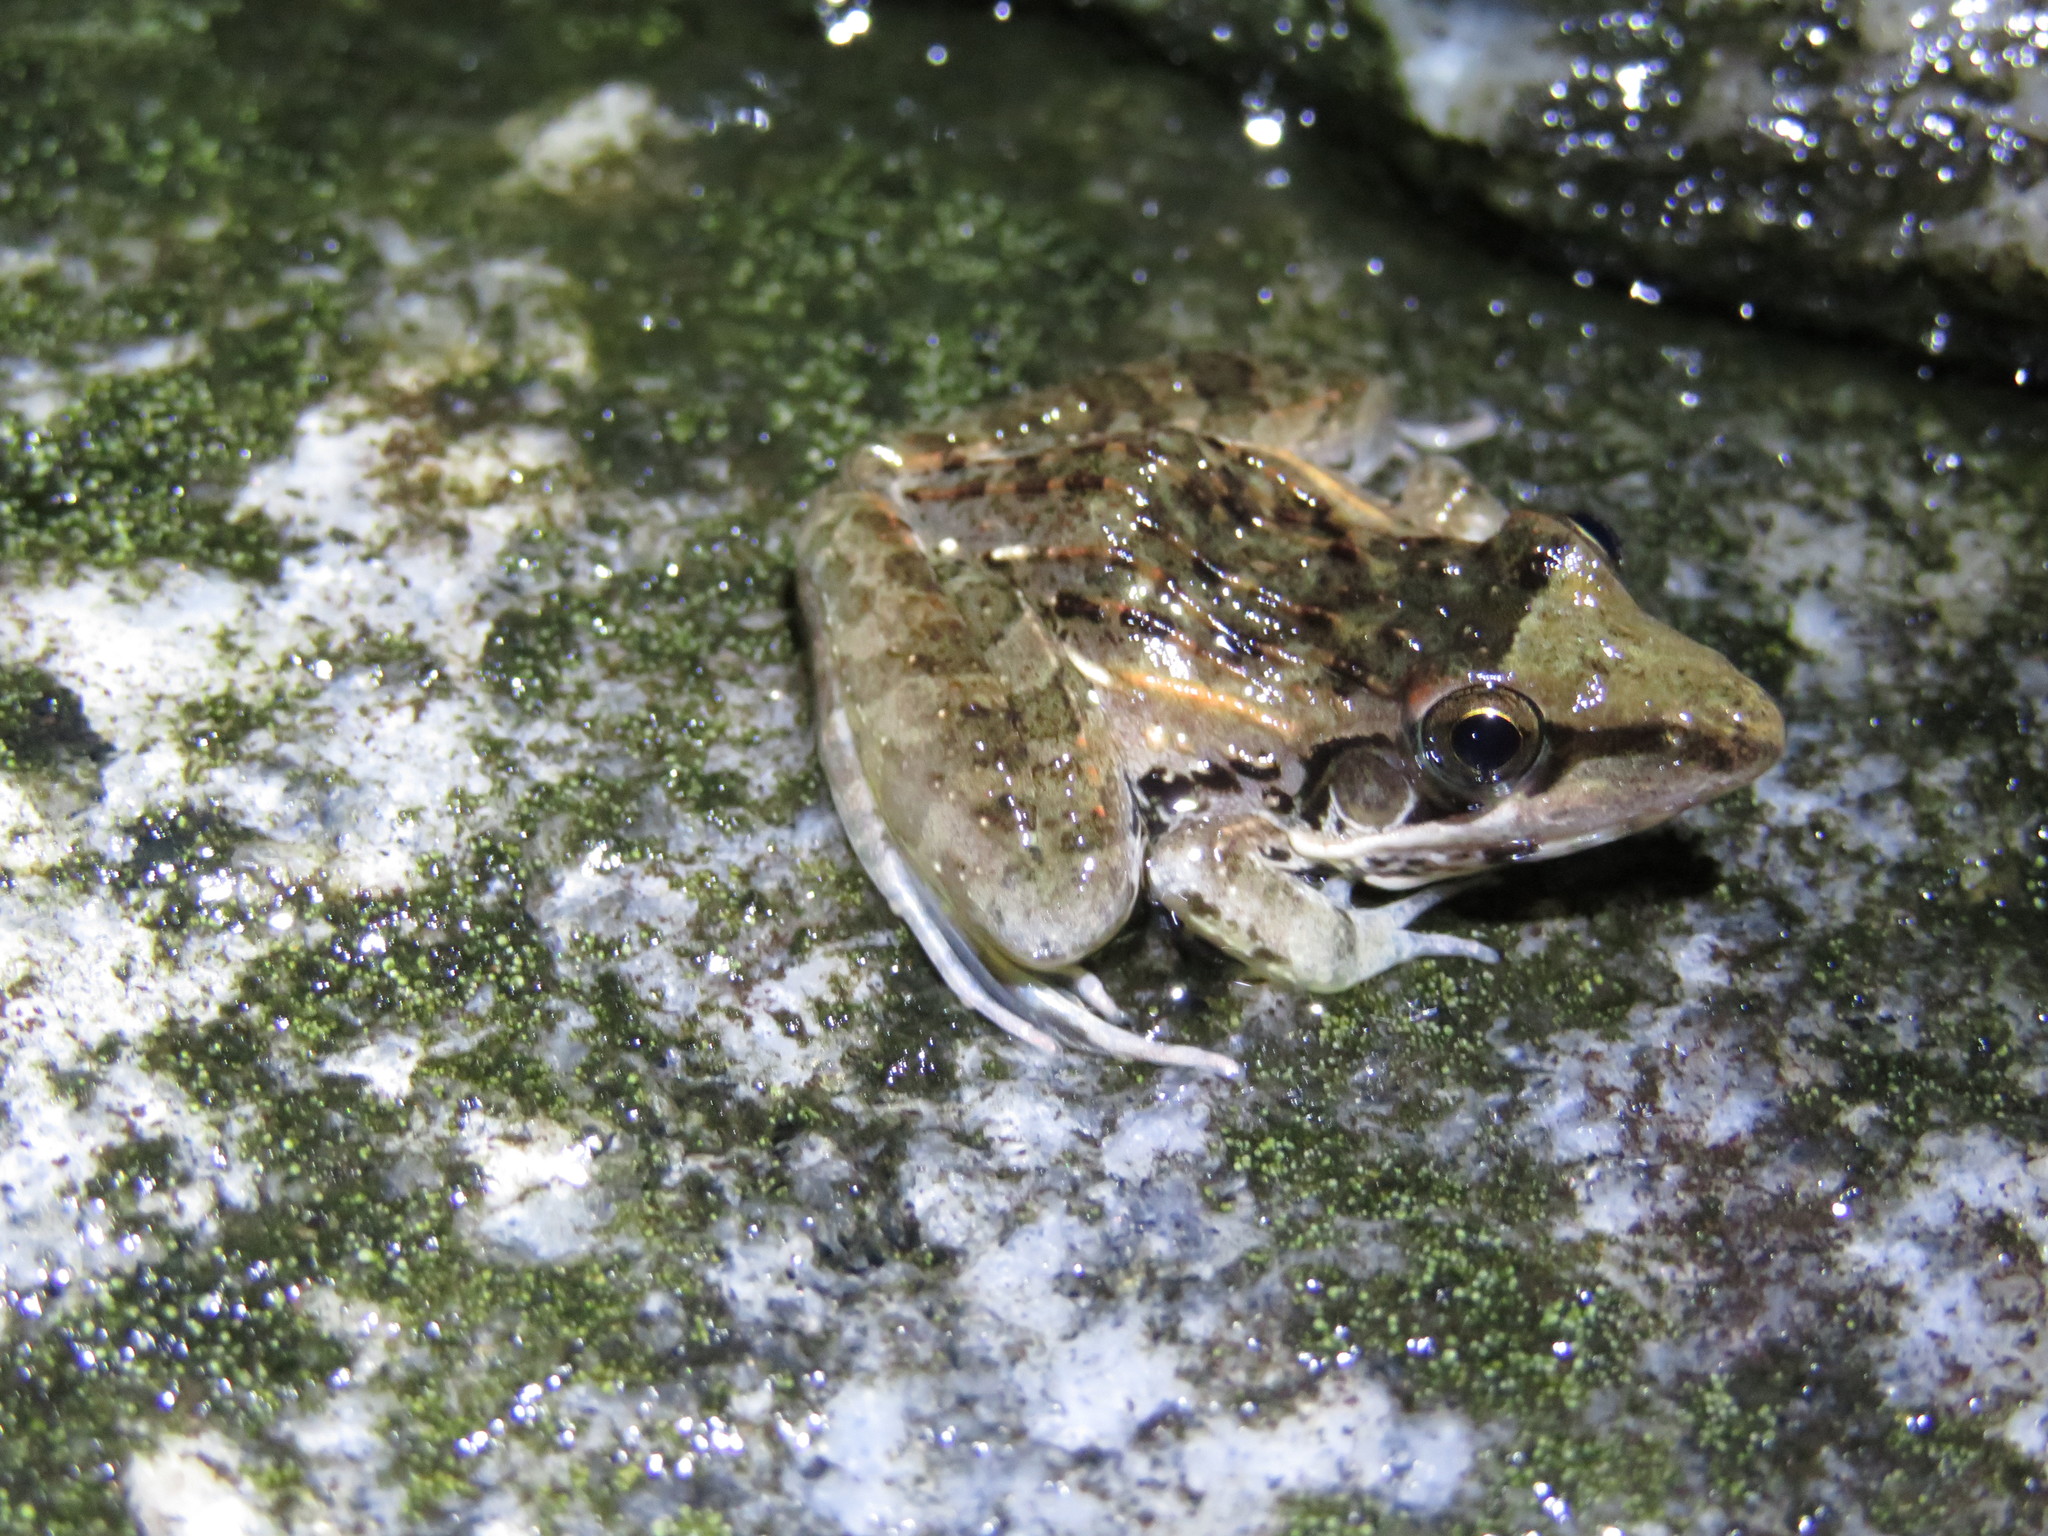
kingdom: Animalia
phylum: Chordata
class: Amphibia
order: Anura
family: Ptychadenidae
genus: Ptychadena
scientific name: Ptychadena anchietae
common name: Anchieta's ridged frog
